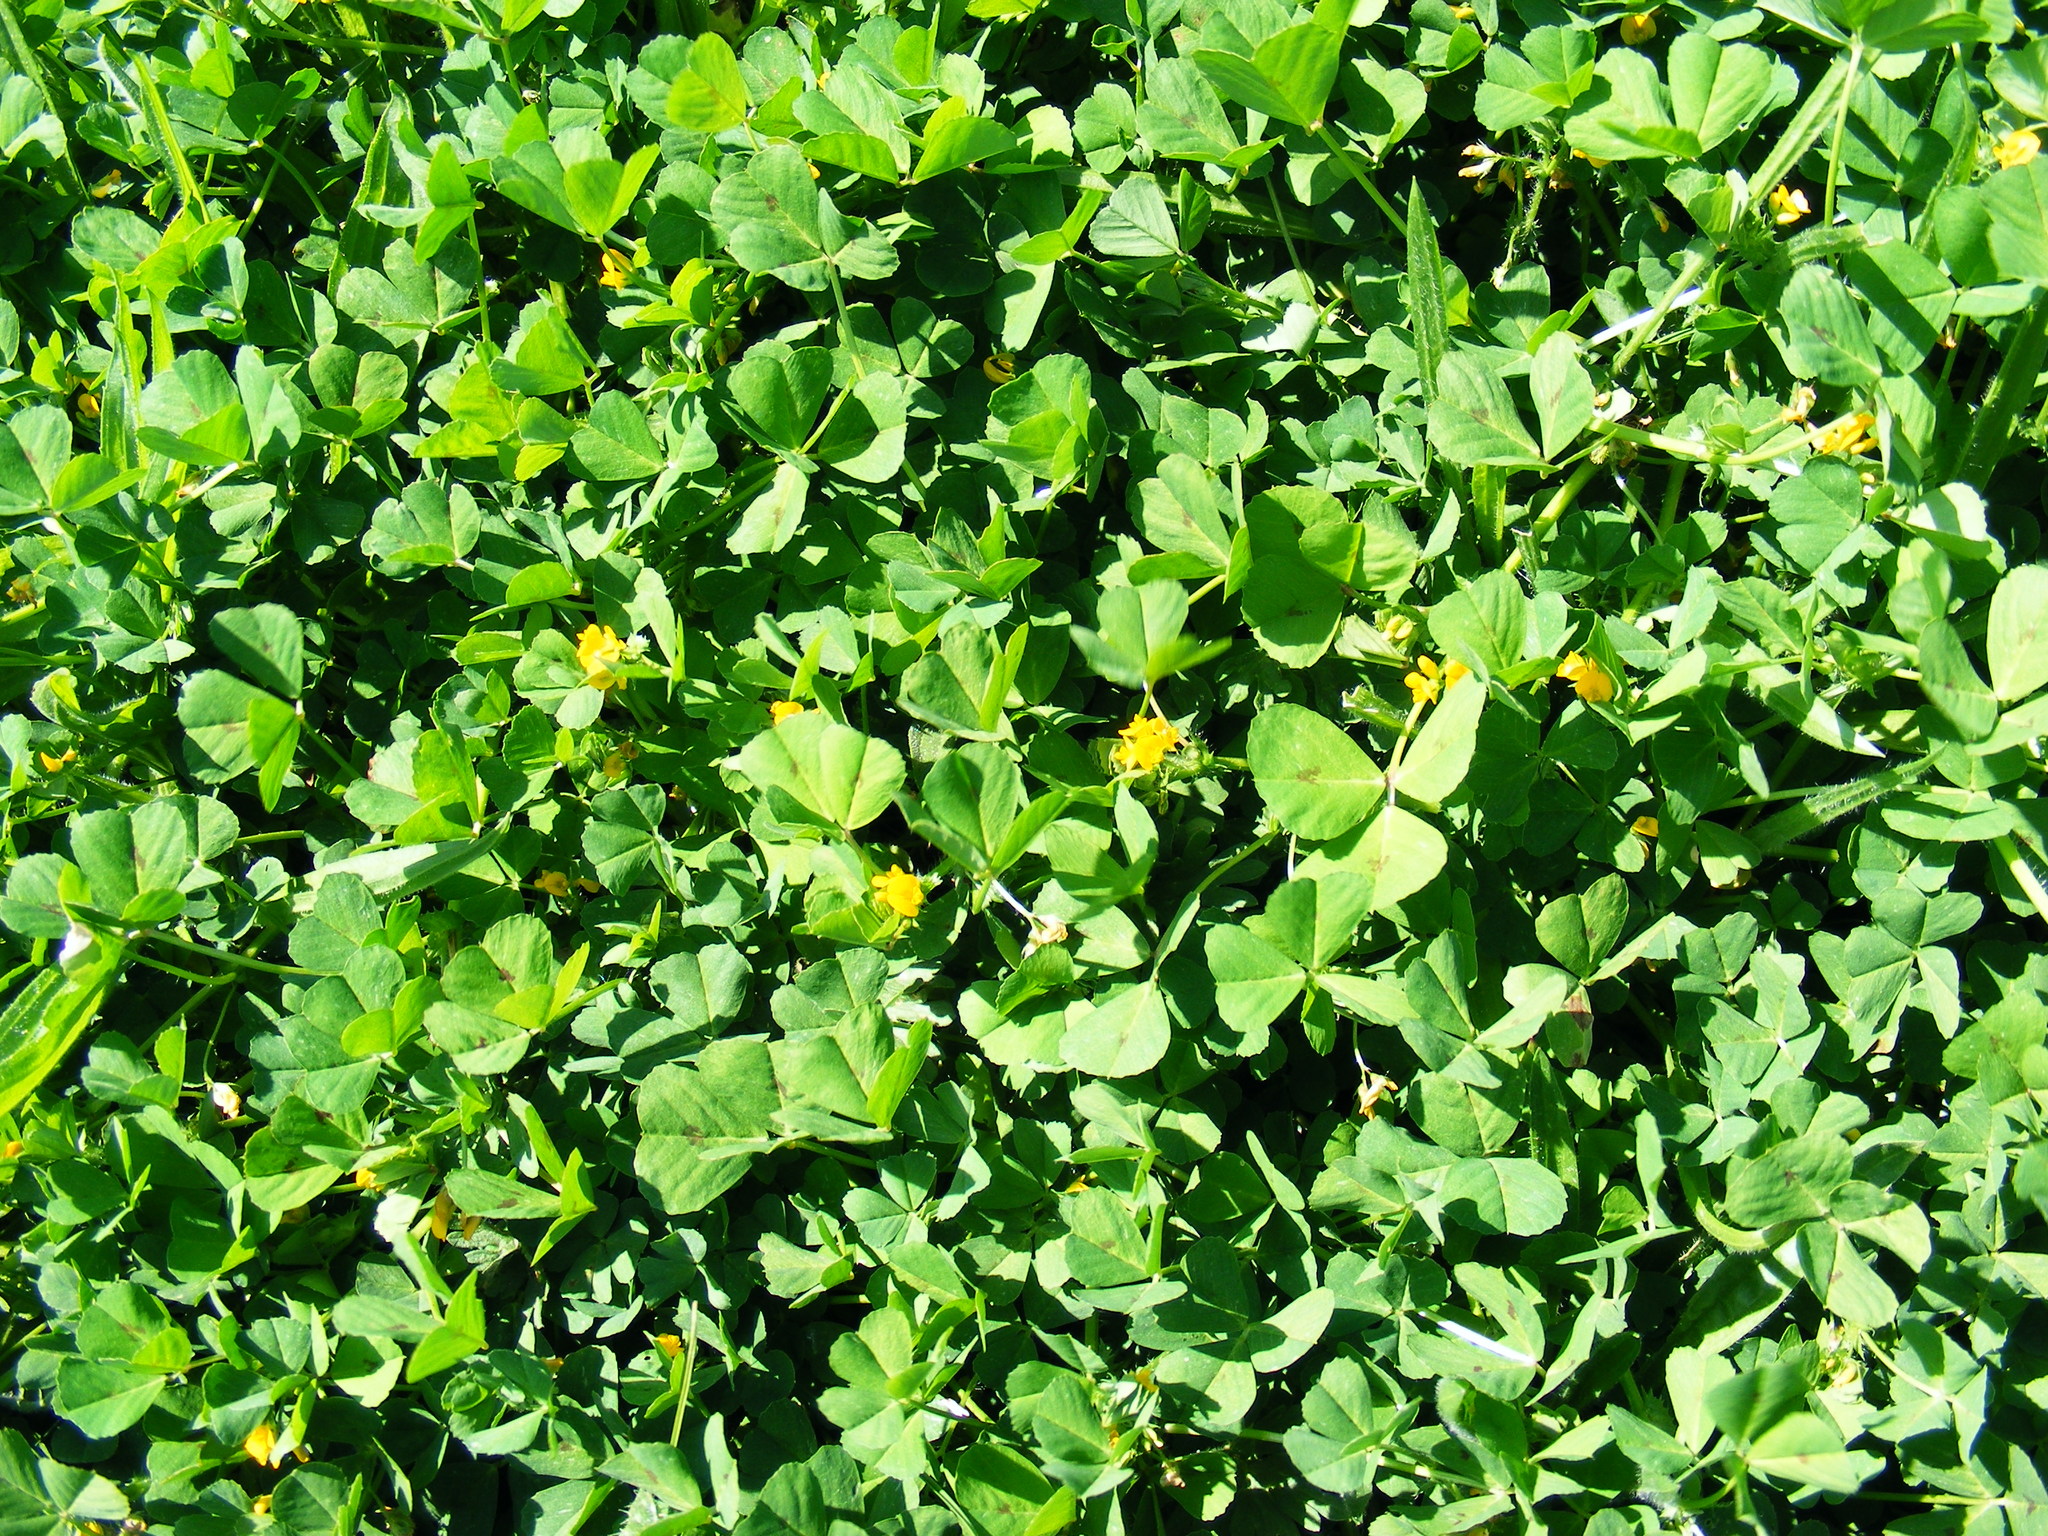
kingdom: Plantae
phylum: Tracheophyta
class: Magnoliopsida
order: Fabales
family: Fabaceae
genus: Medicago
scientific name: Medicago arabica
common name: Spotted medick
